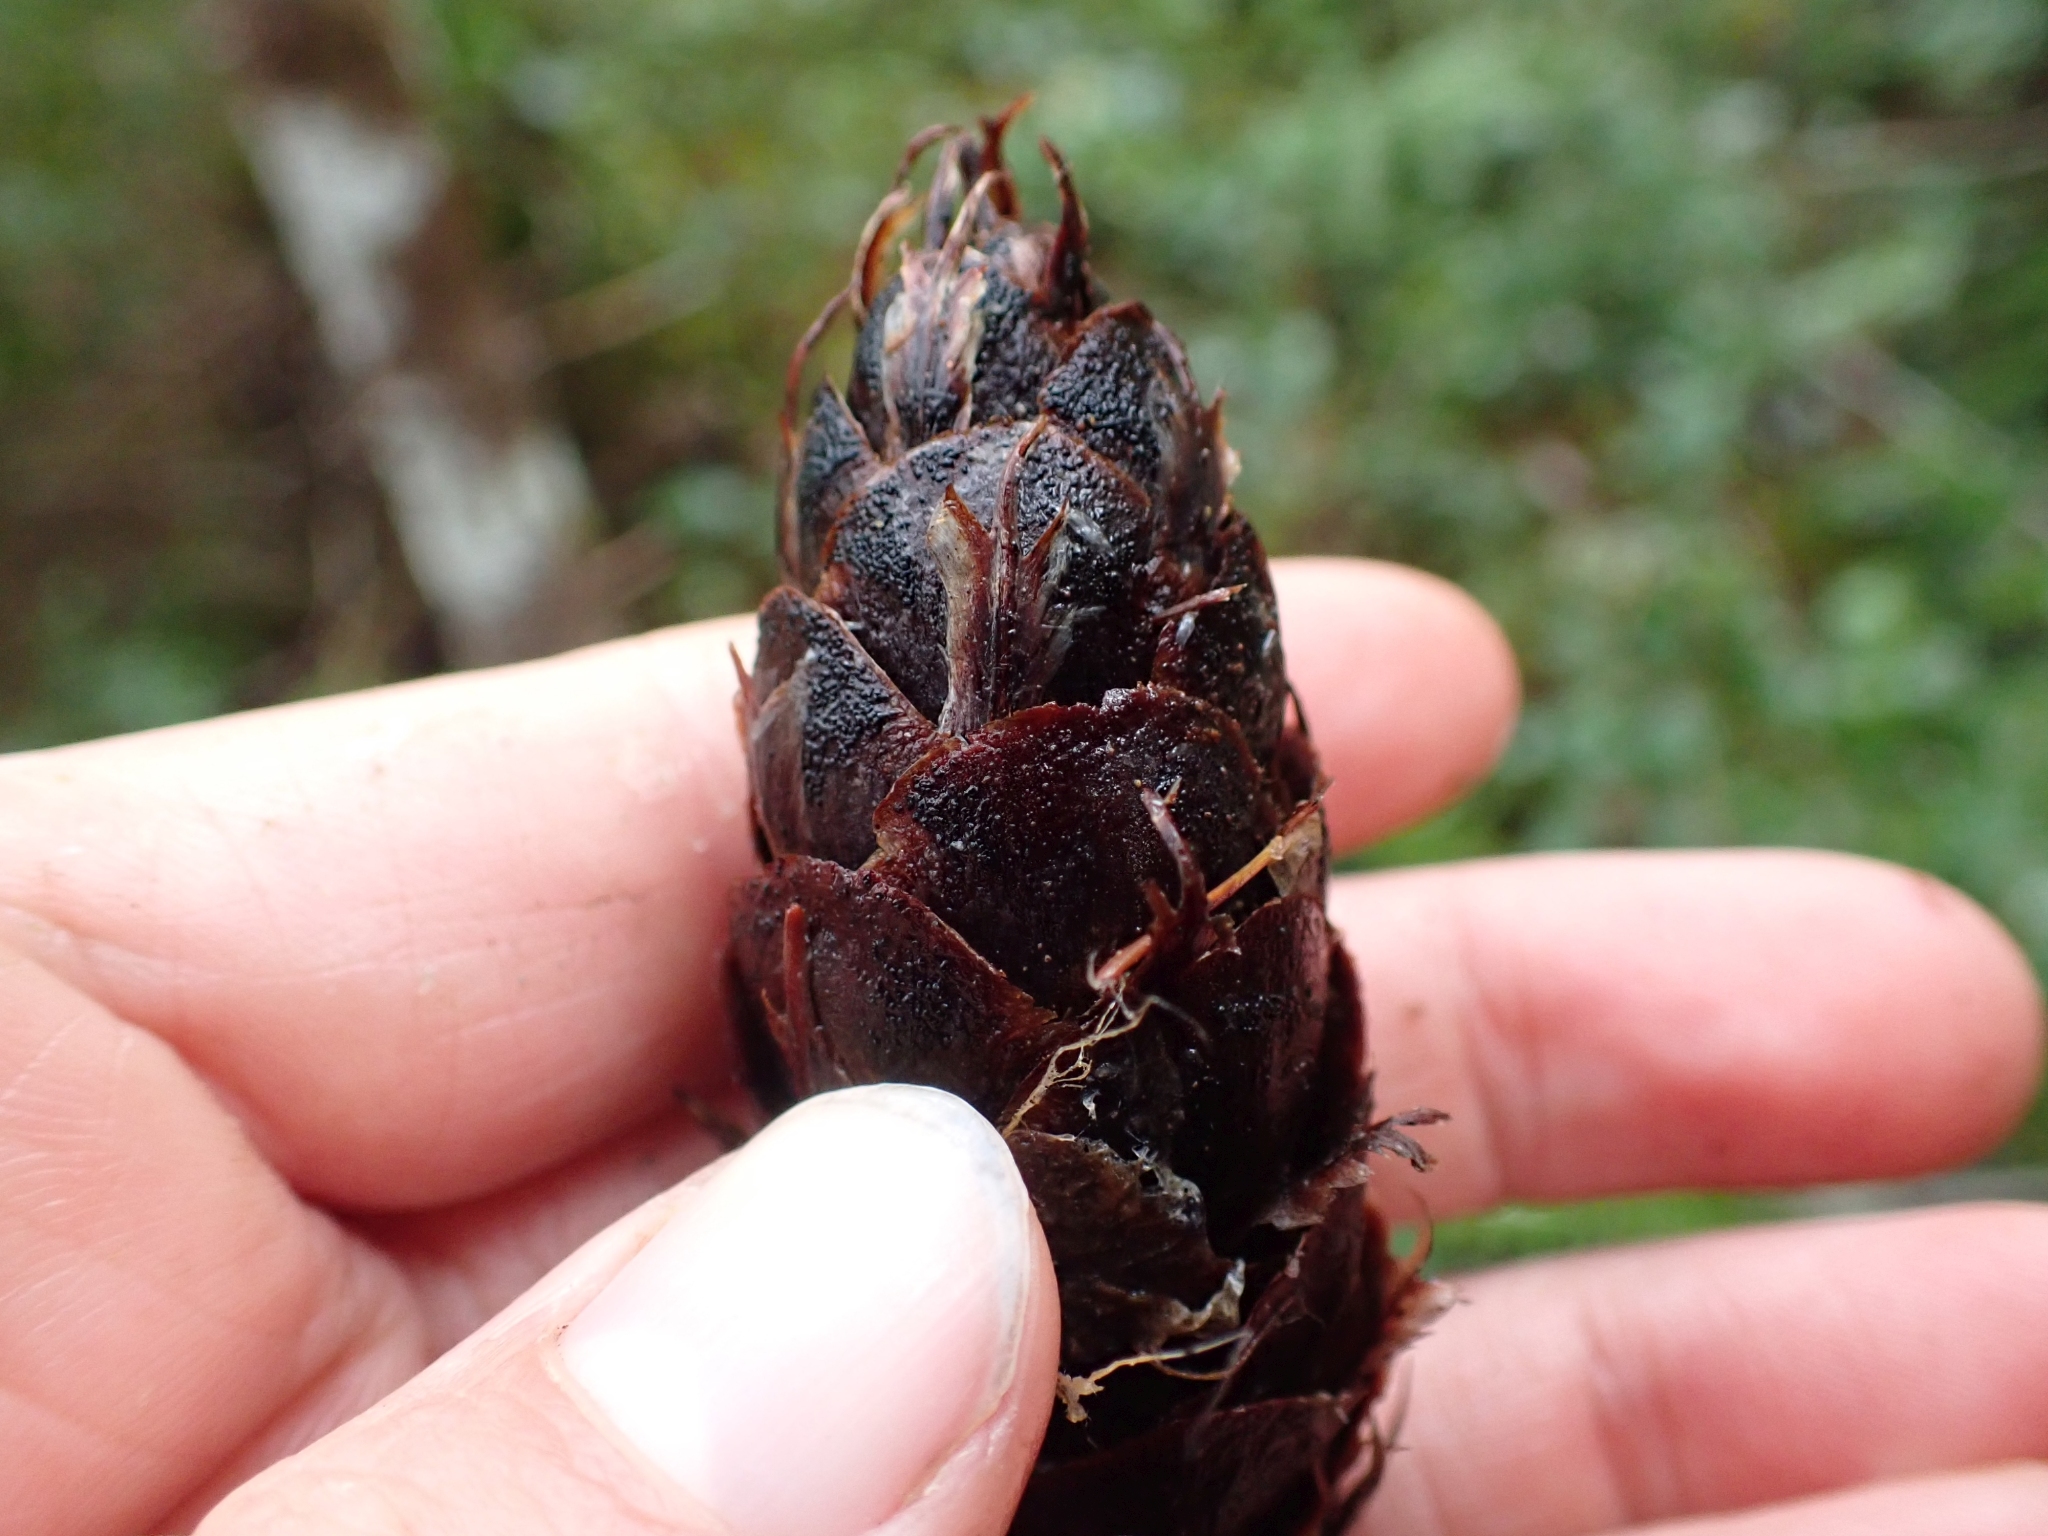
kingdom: Plantae
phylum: Tracheophyta
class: Pinopsida
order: Pinales
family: Pinaceae
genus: Pseudotsuga
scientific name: Pseudotsuga menziesii
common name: Douglas fir
